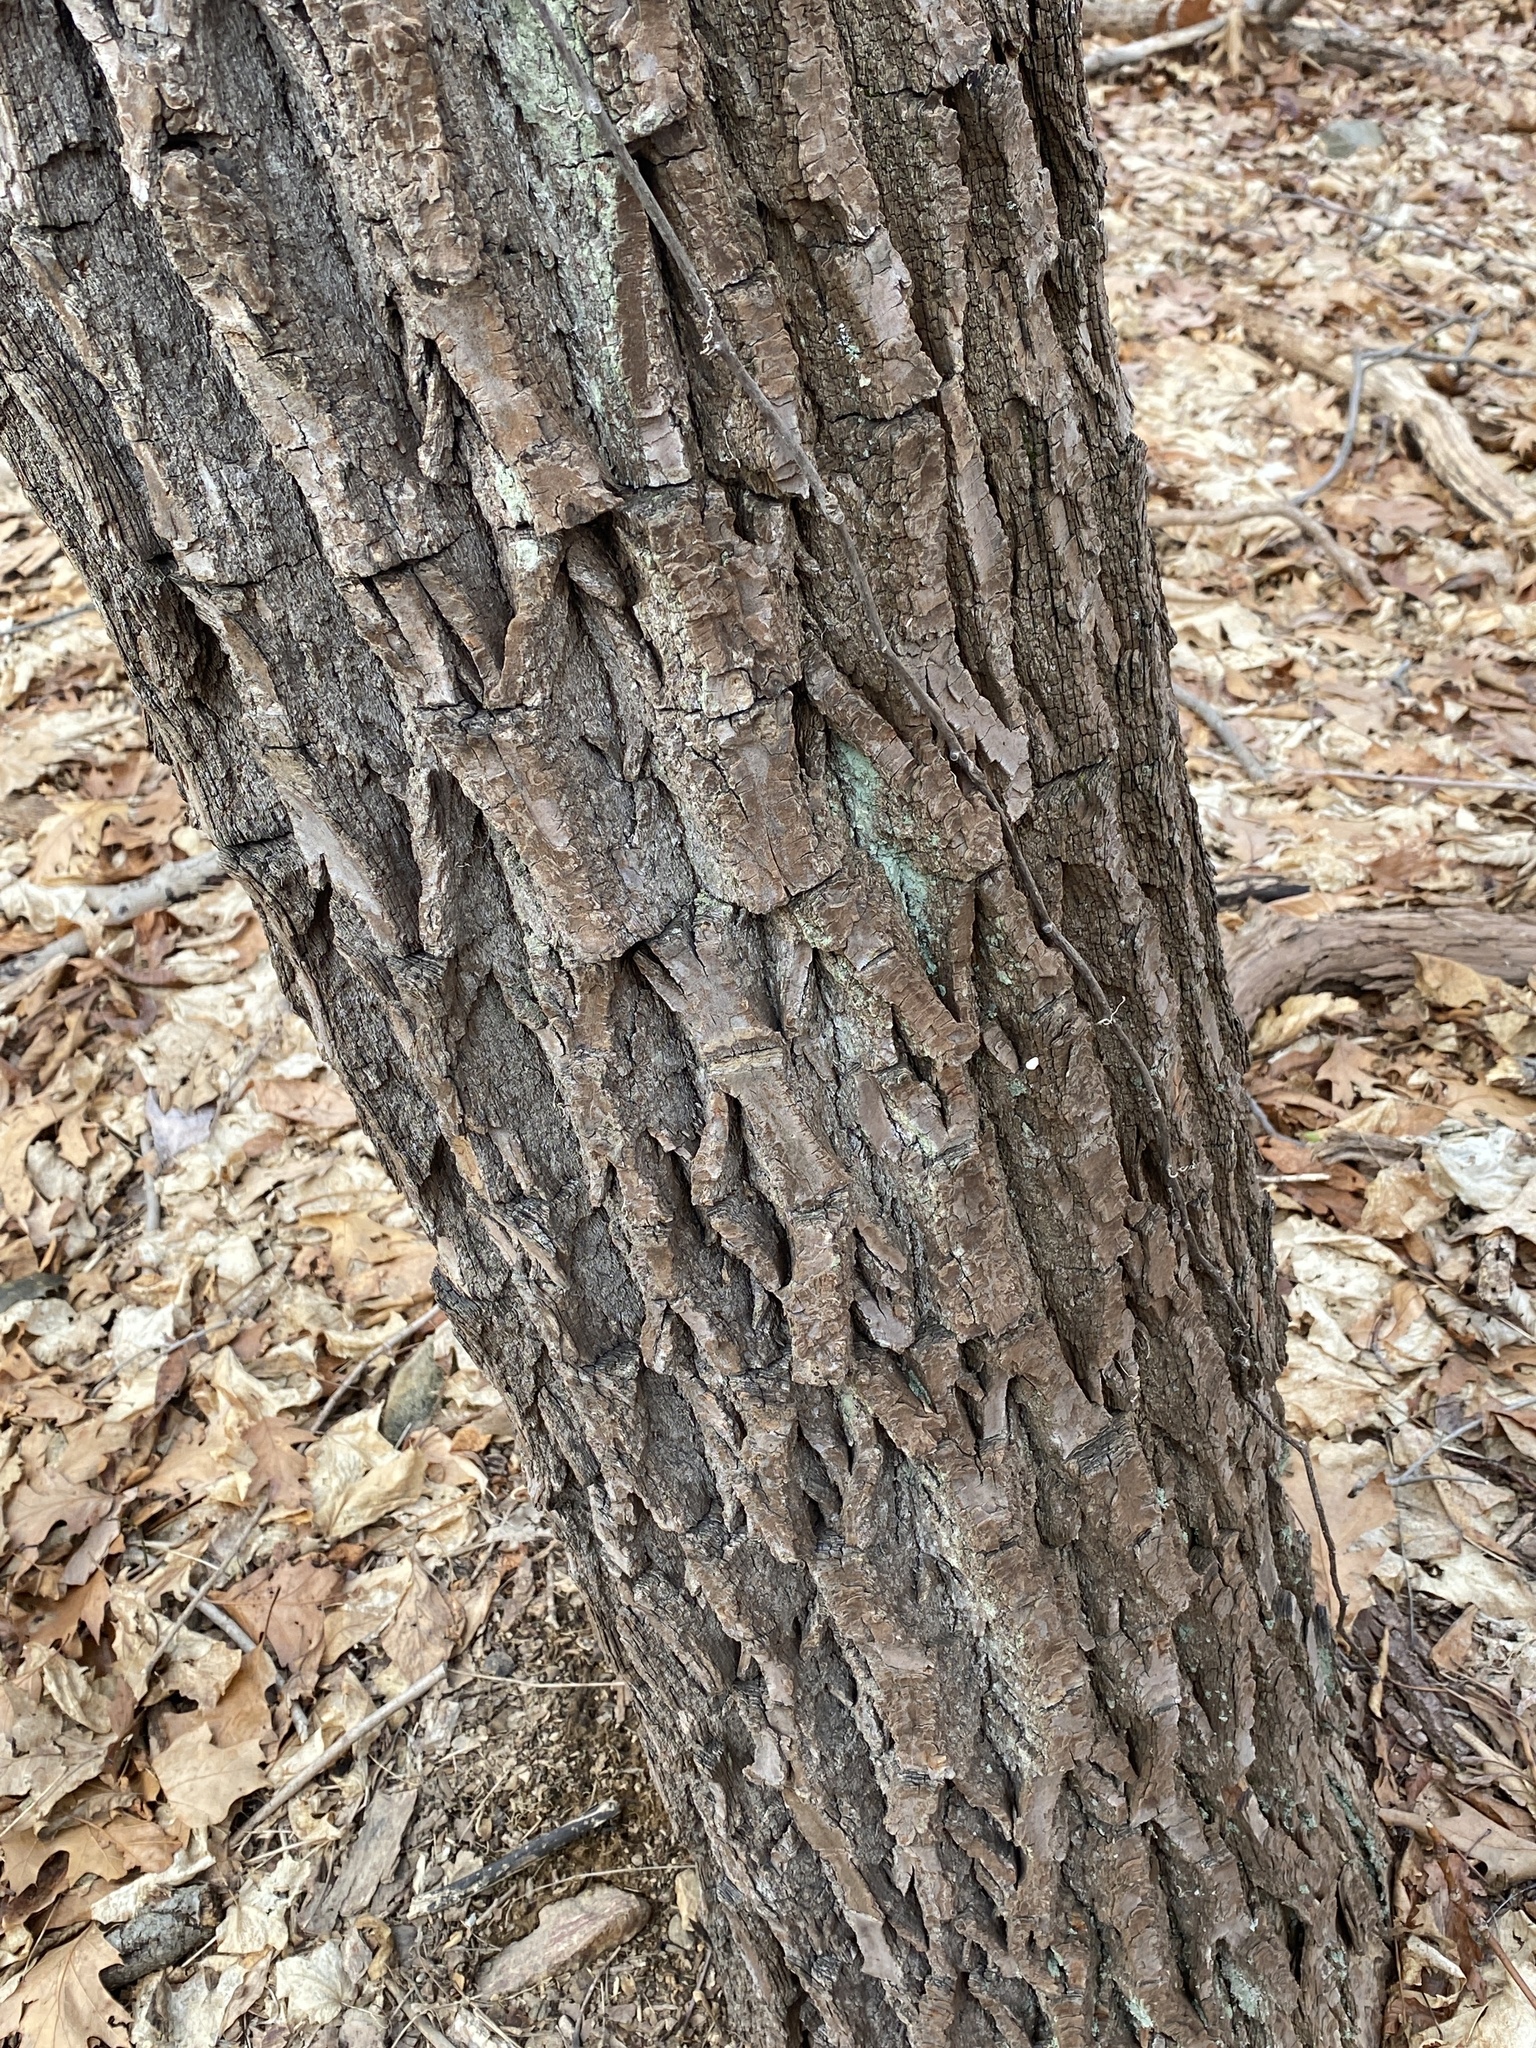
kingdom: Plantae
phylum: Tracheophyta
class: Magnoliopsida
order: Laurales
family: Lauraceae
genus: Sassafras
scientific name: Sassafras albidum
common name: Sassafras
